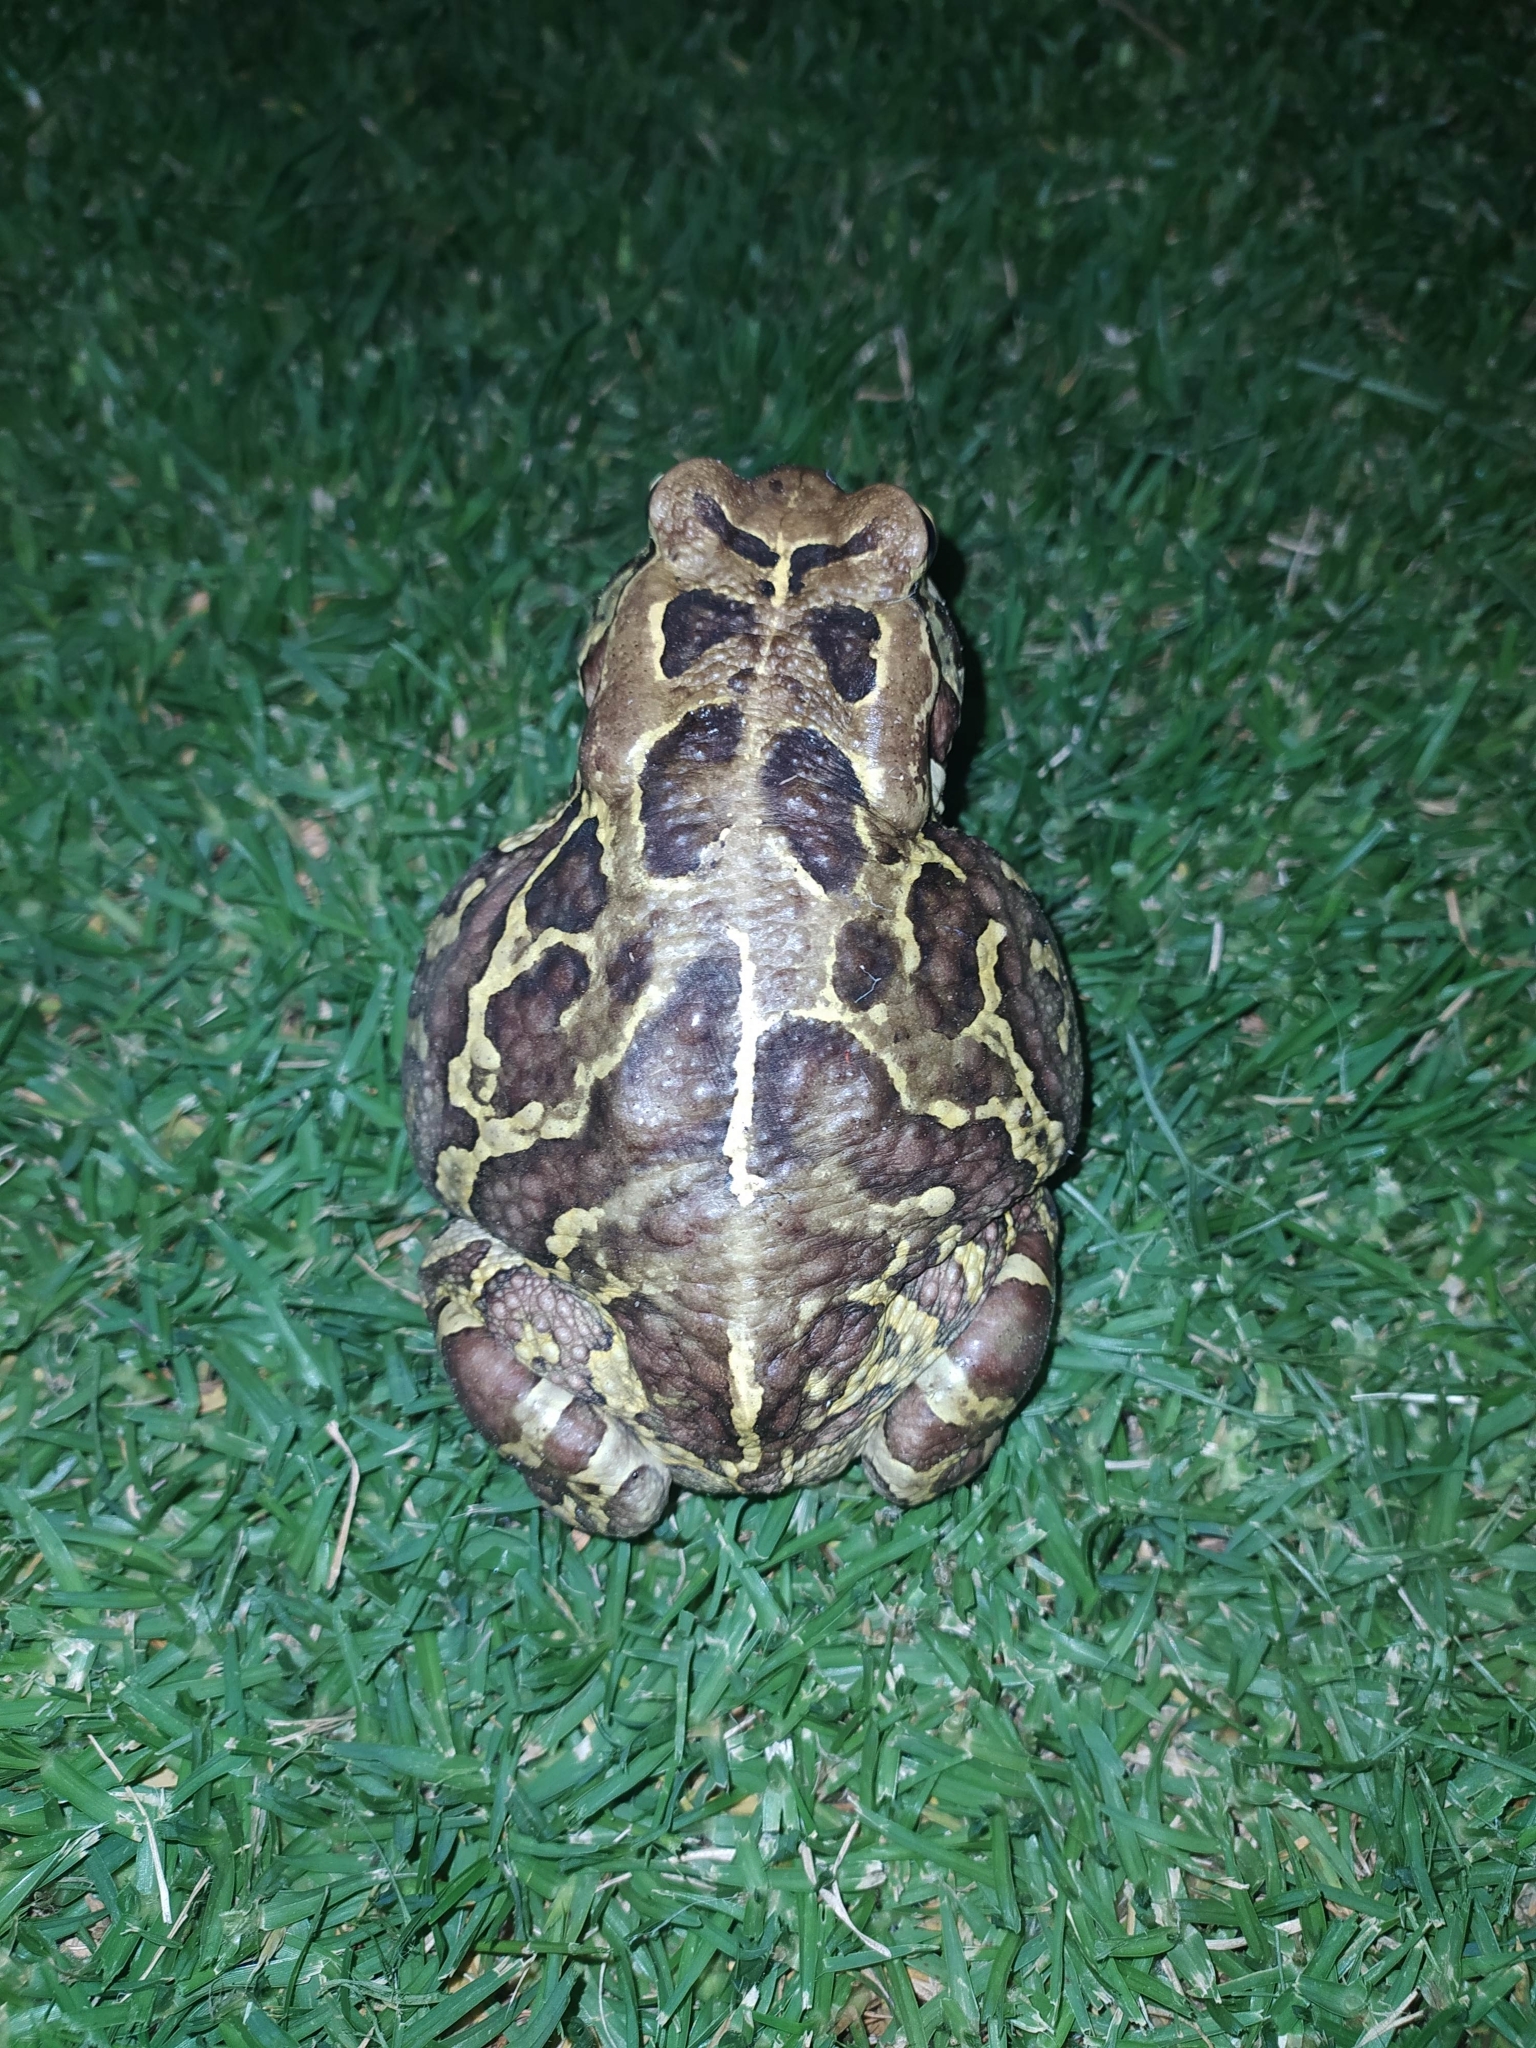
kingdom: Animalia
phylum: Chordata
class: Amphibia
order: Anura
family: Bufonidae
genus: Sclerophrys
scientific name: Sclerophrys pantherina
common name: Panther toad
